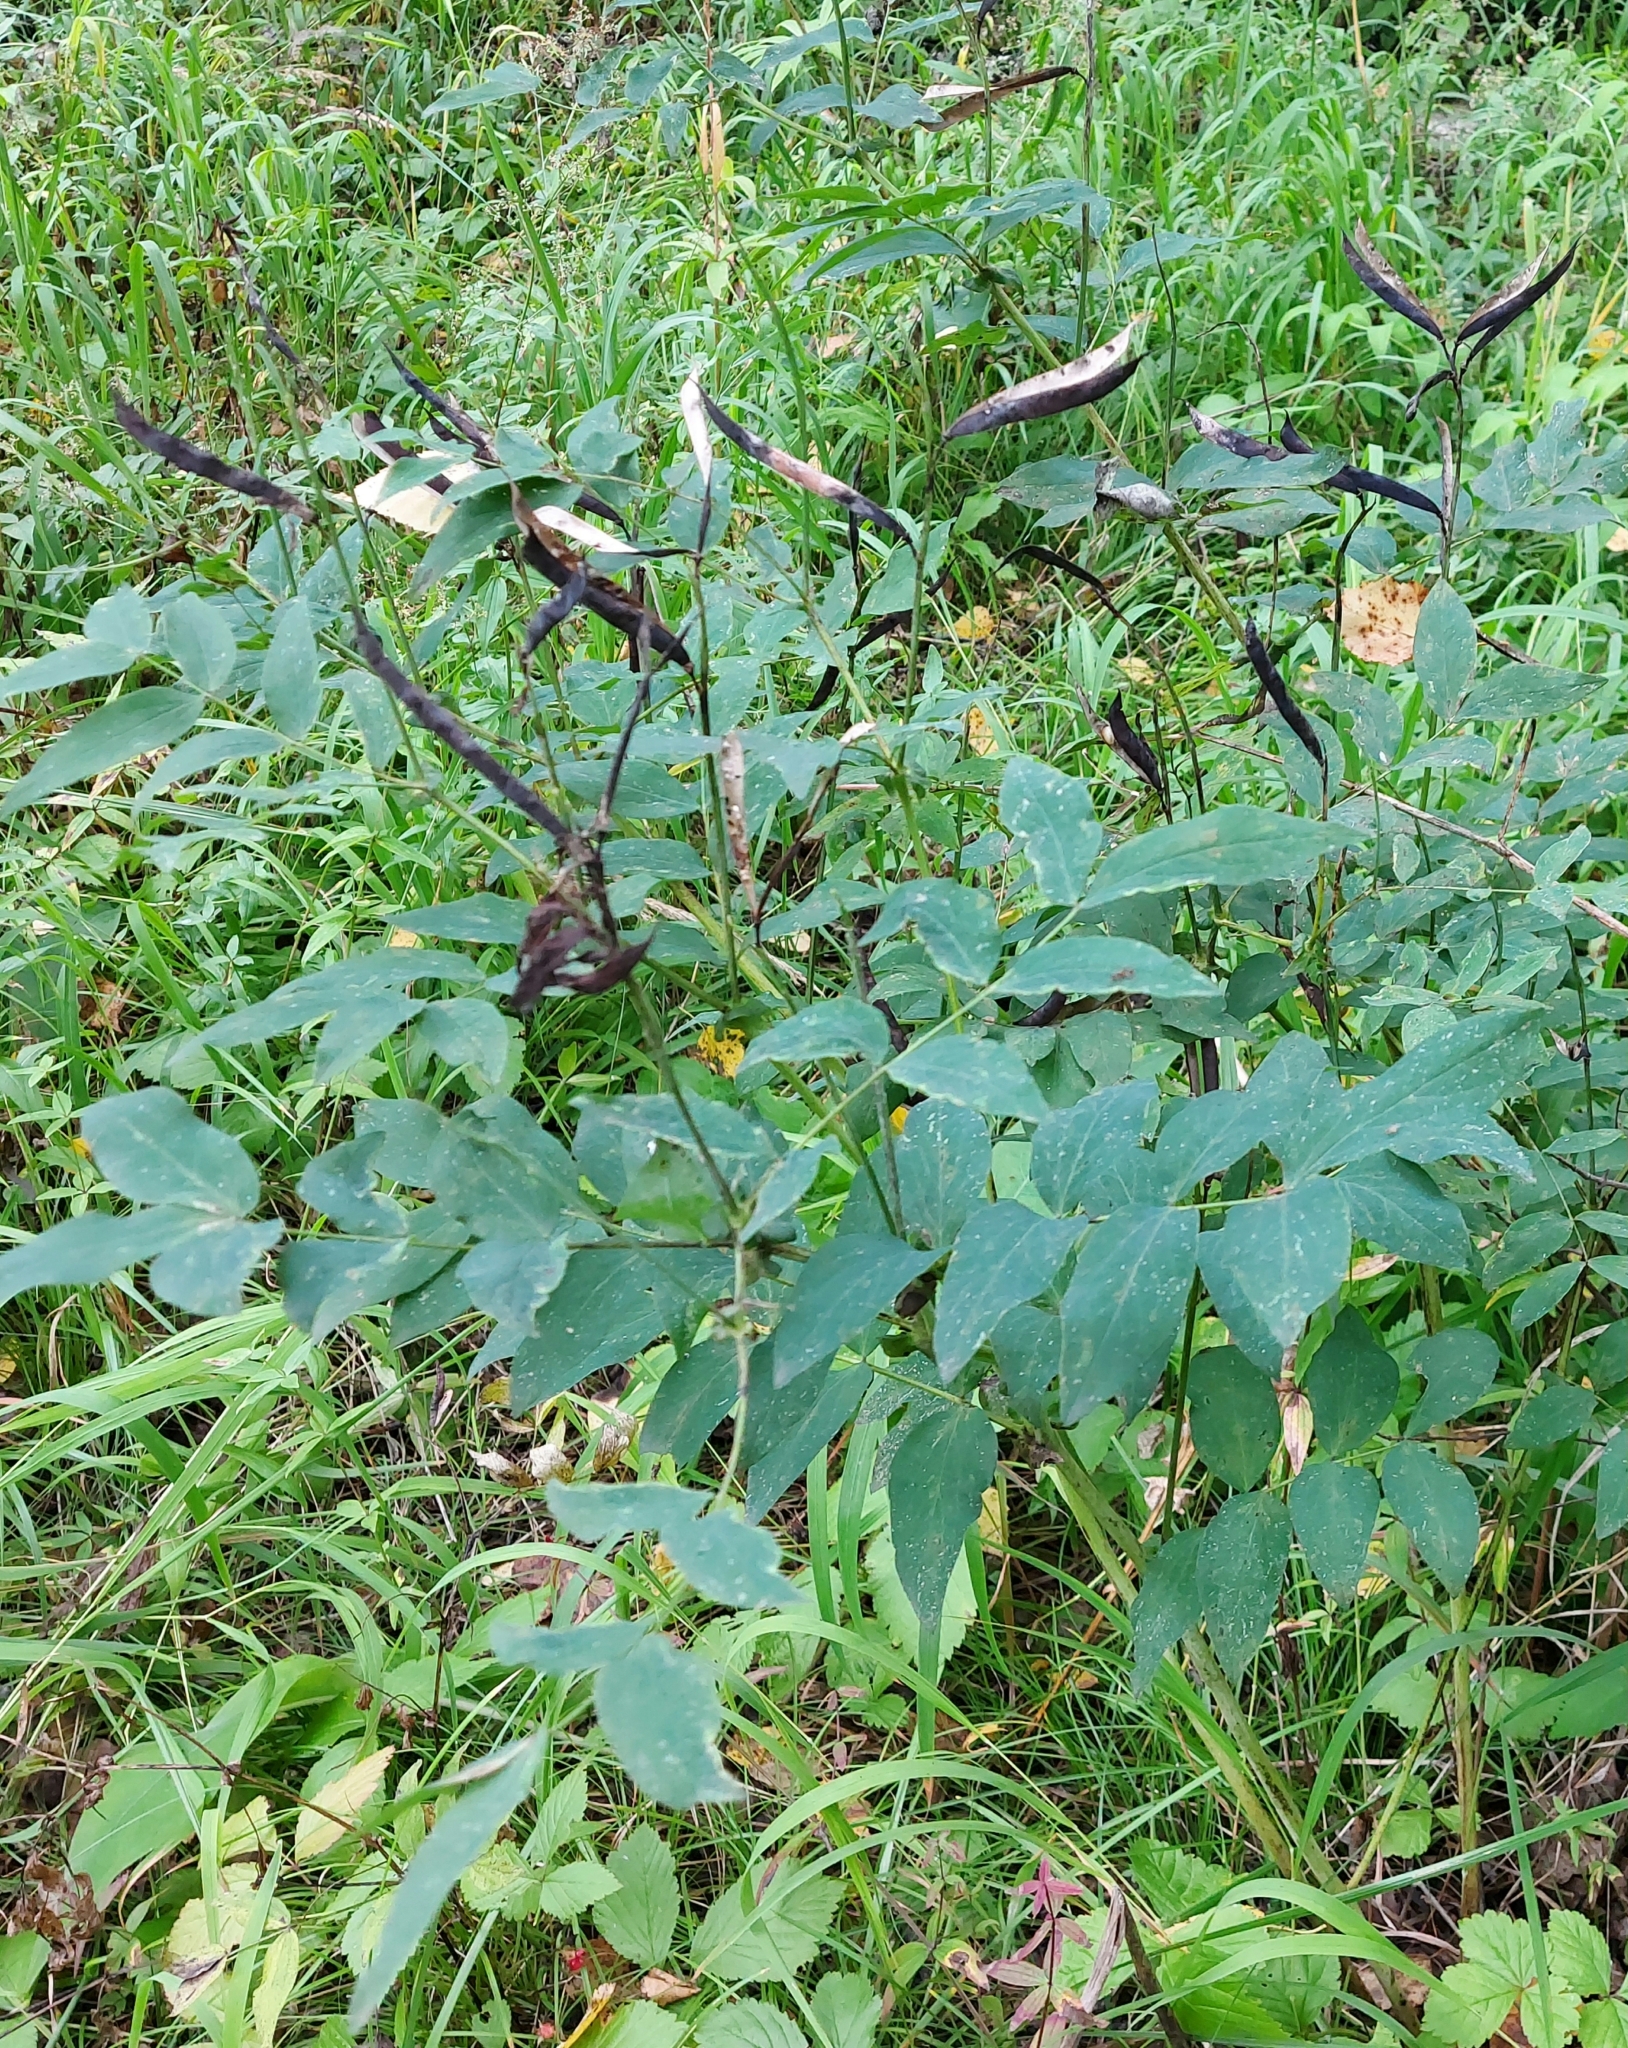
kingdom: Plantae
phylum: Tracheophyta
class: Magnoliopsida
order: Fabales
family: Fabaceae
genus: Lathyrus
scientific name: Lathyrus gmelinii
